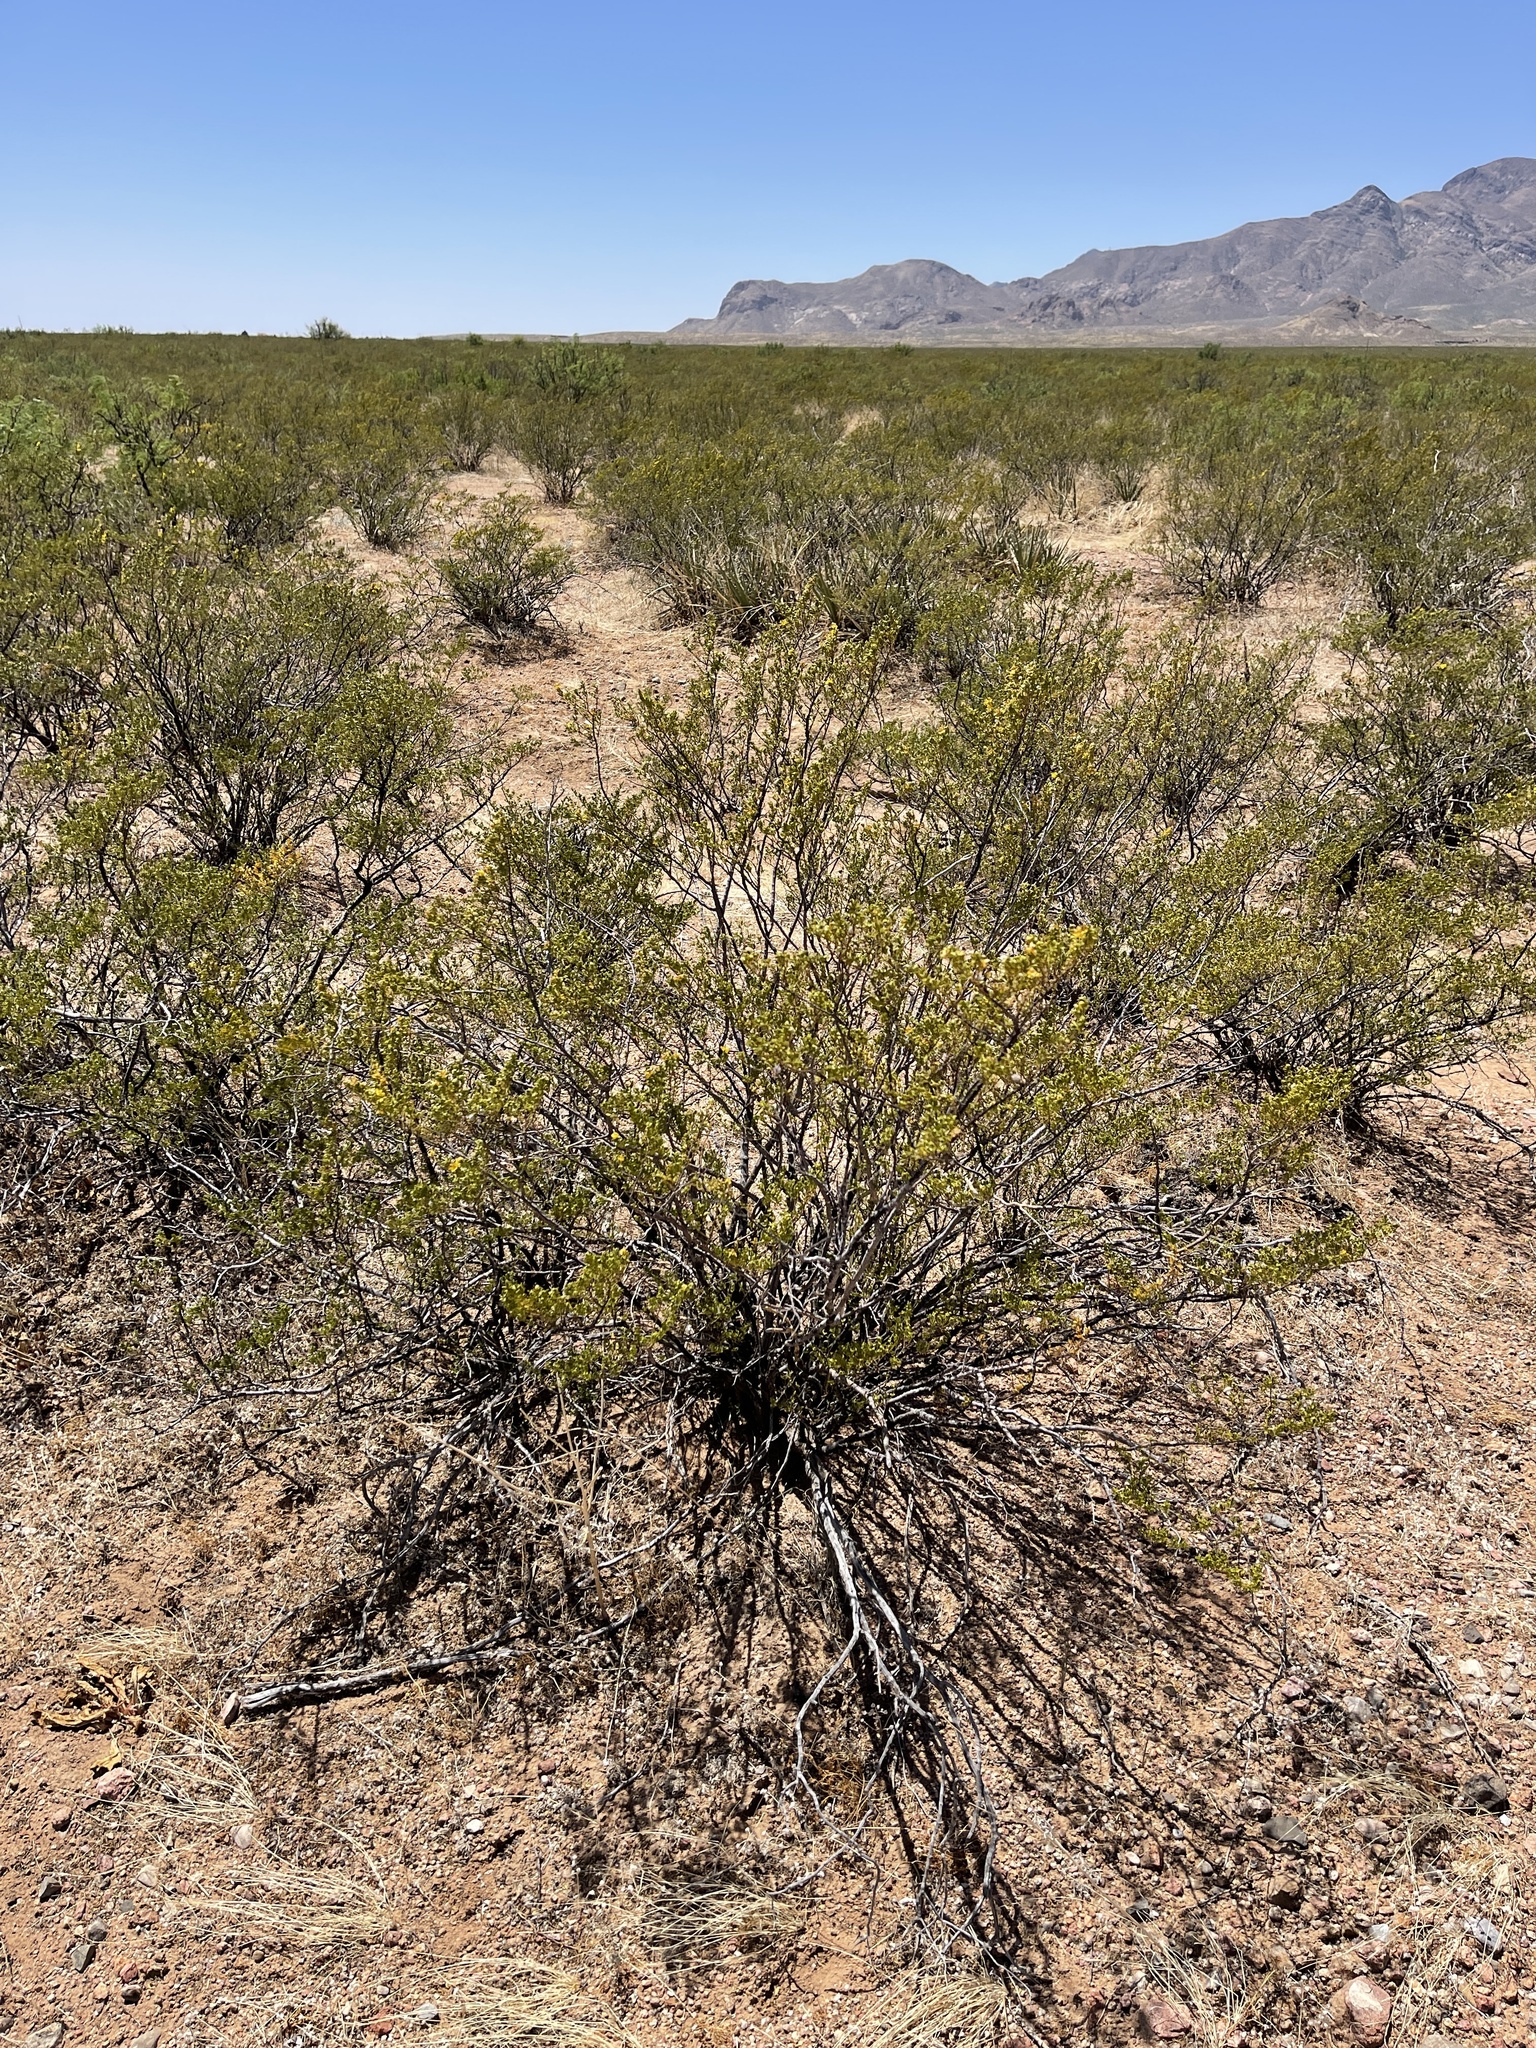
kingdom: Plantae
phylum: Tracheophyta
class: Magnoliopsida
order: Zygophyllales
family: Zygophyllaceae
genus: Larrea
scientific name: Larrea tridentata
